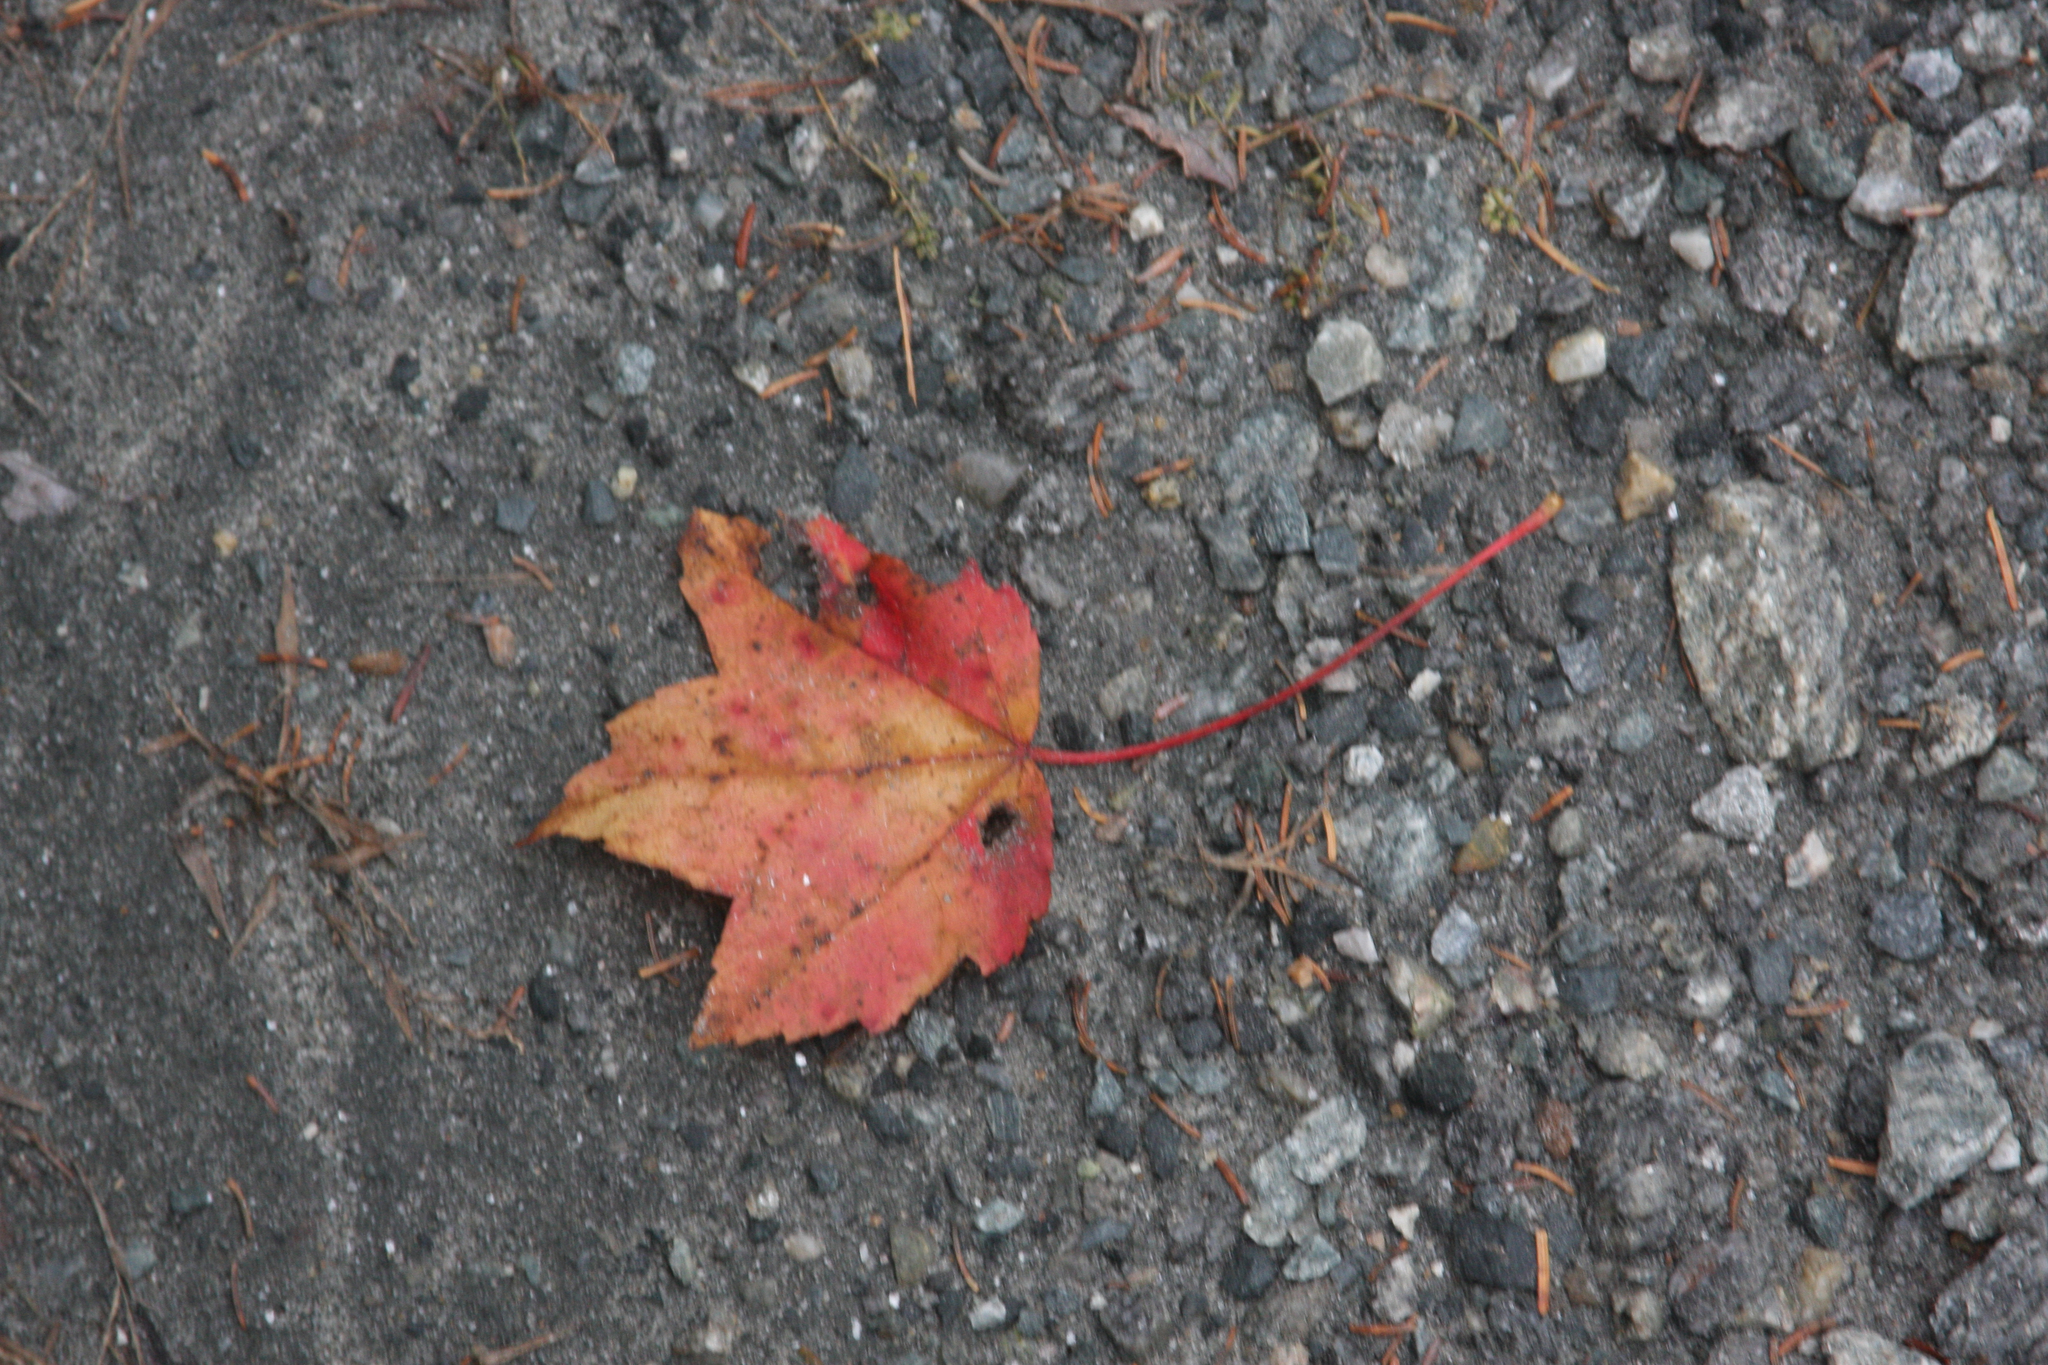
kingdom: Plantae
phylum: Tracheophyta
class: Magnoliopsida
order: Sapindales
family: Sapindaceae
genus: Acer
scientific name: Acer rubrum
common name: Red maple
